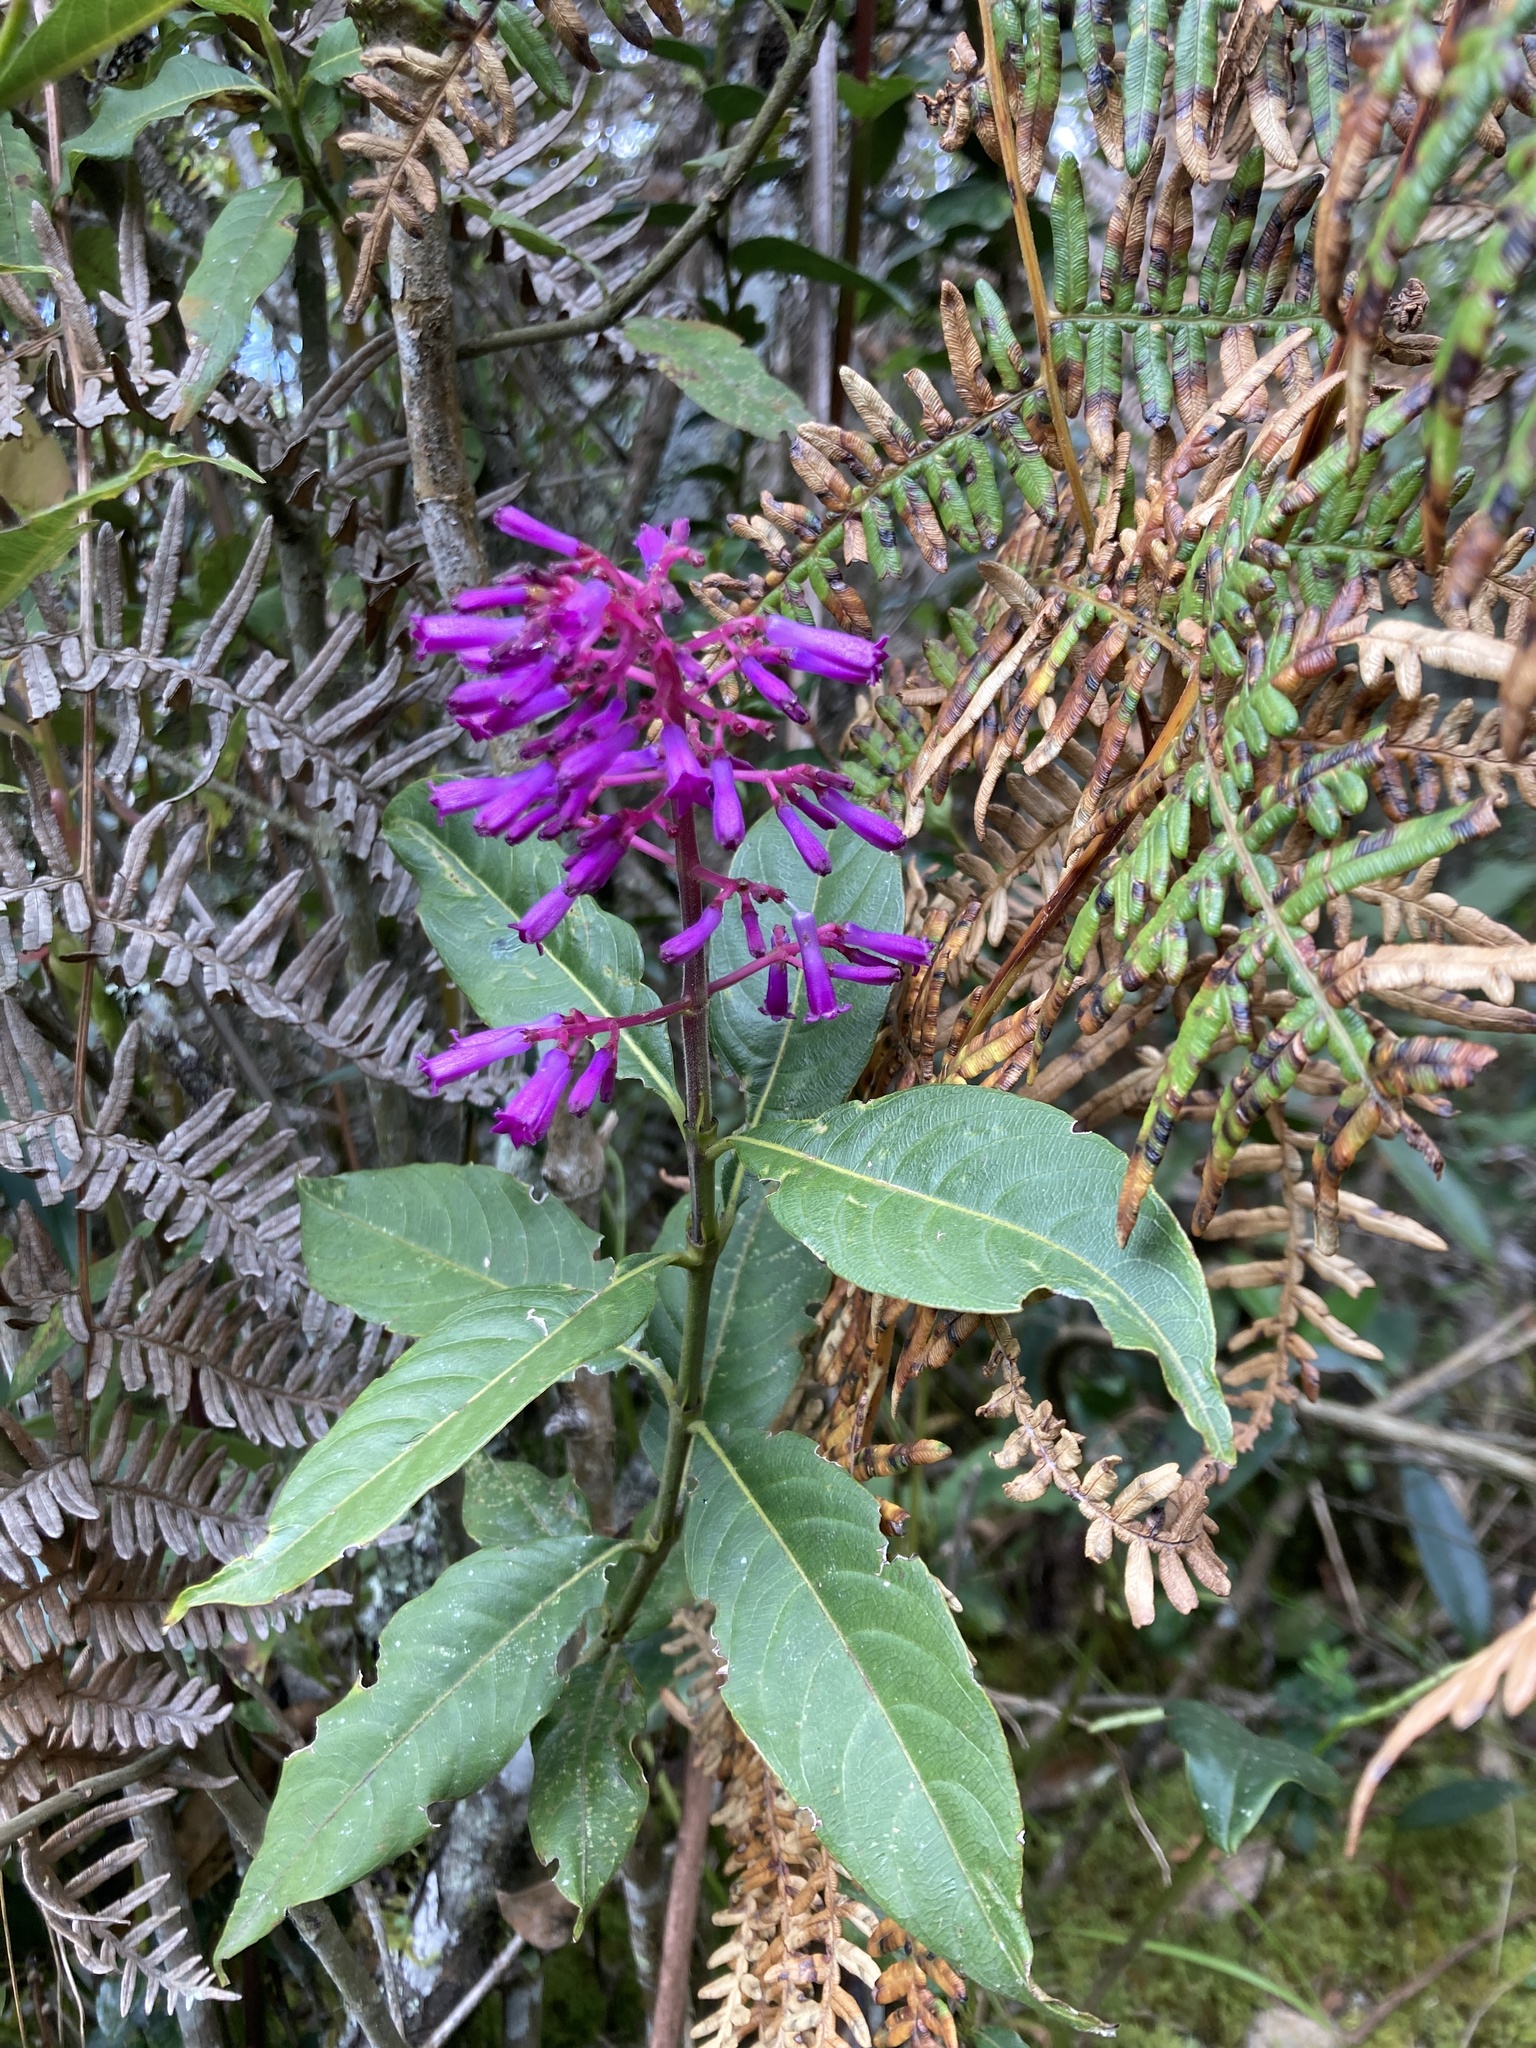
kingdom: Plantae
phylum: Tracheophyta
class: Magnoliopsida
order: Gentianales
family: Rubiaceae
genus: Palicourea
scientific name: Palicourea angustifolia
